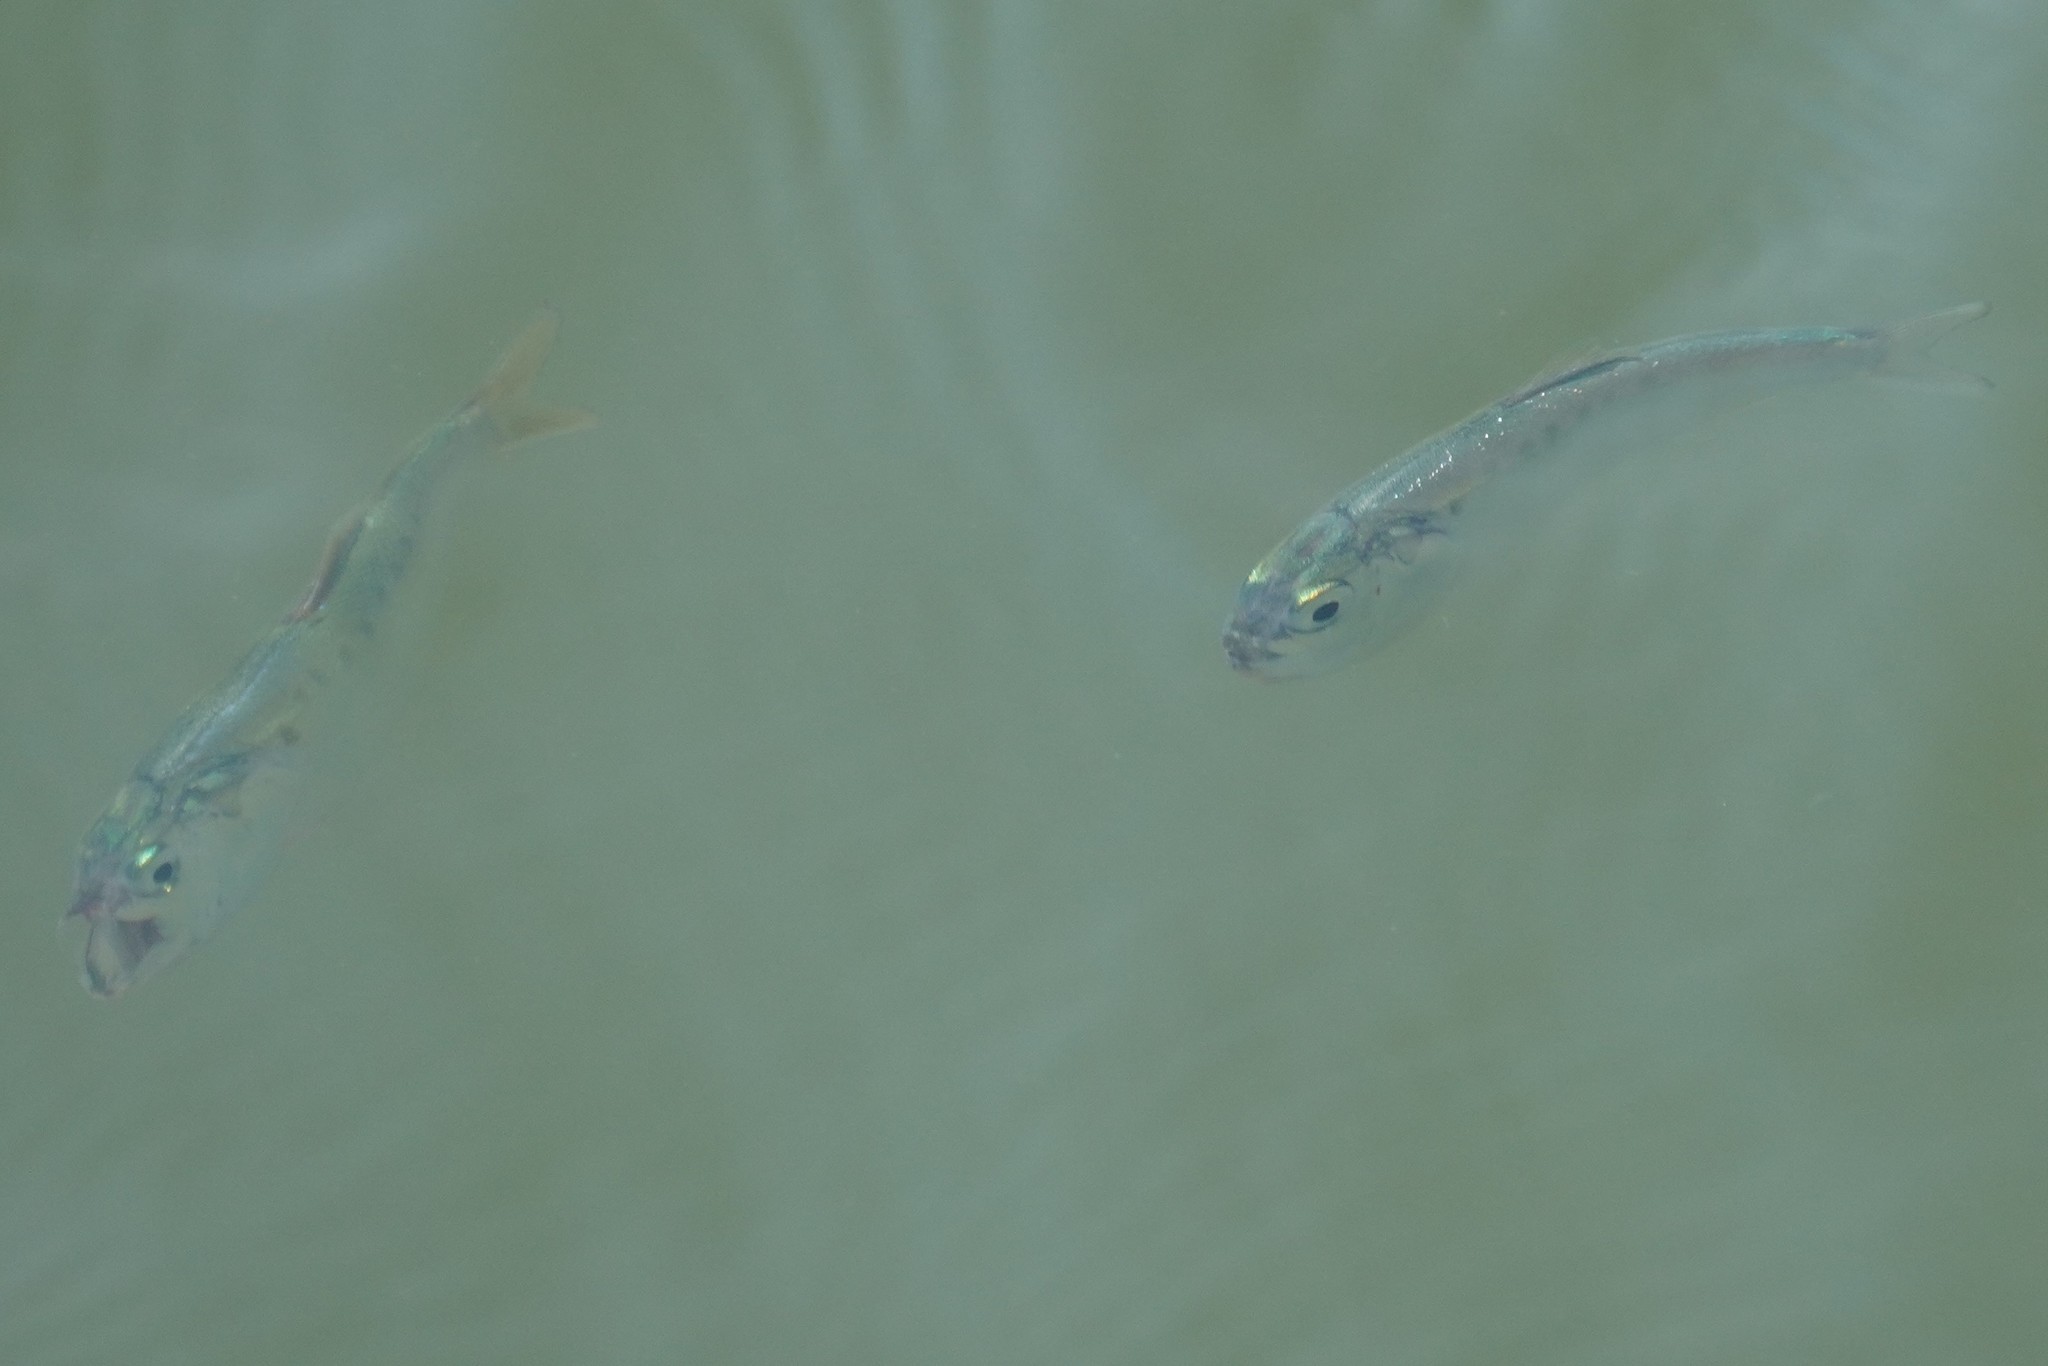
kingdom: Animalia
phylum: Chordata
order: Clupeiformes
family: Clupeidae
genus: Brevoortia
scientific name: Brevoortia tyrannus
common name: Atlantic menhaden
